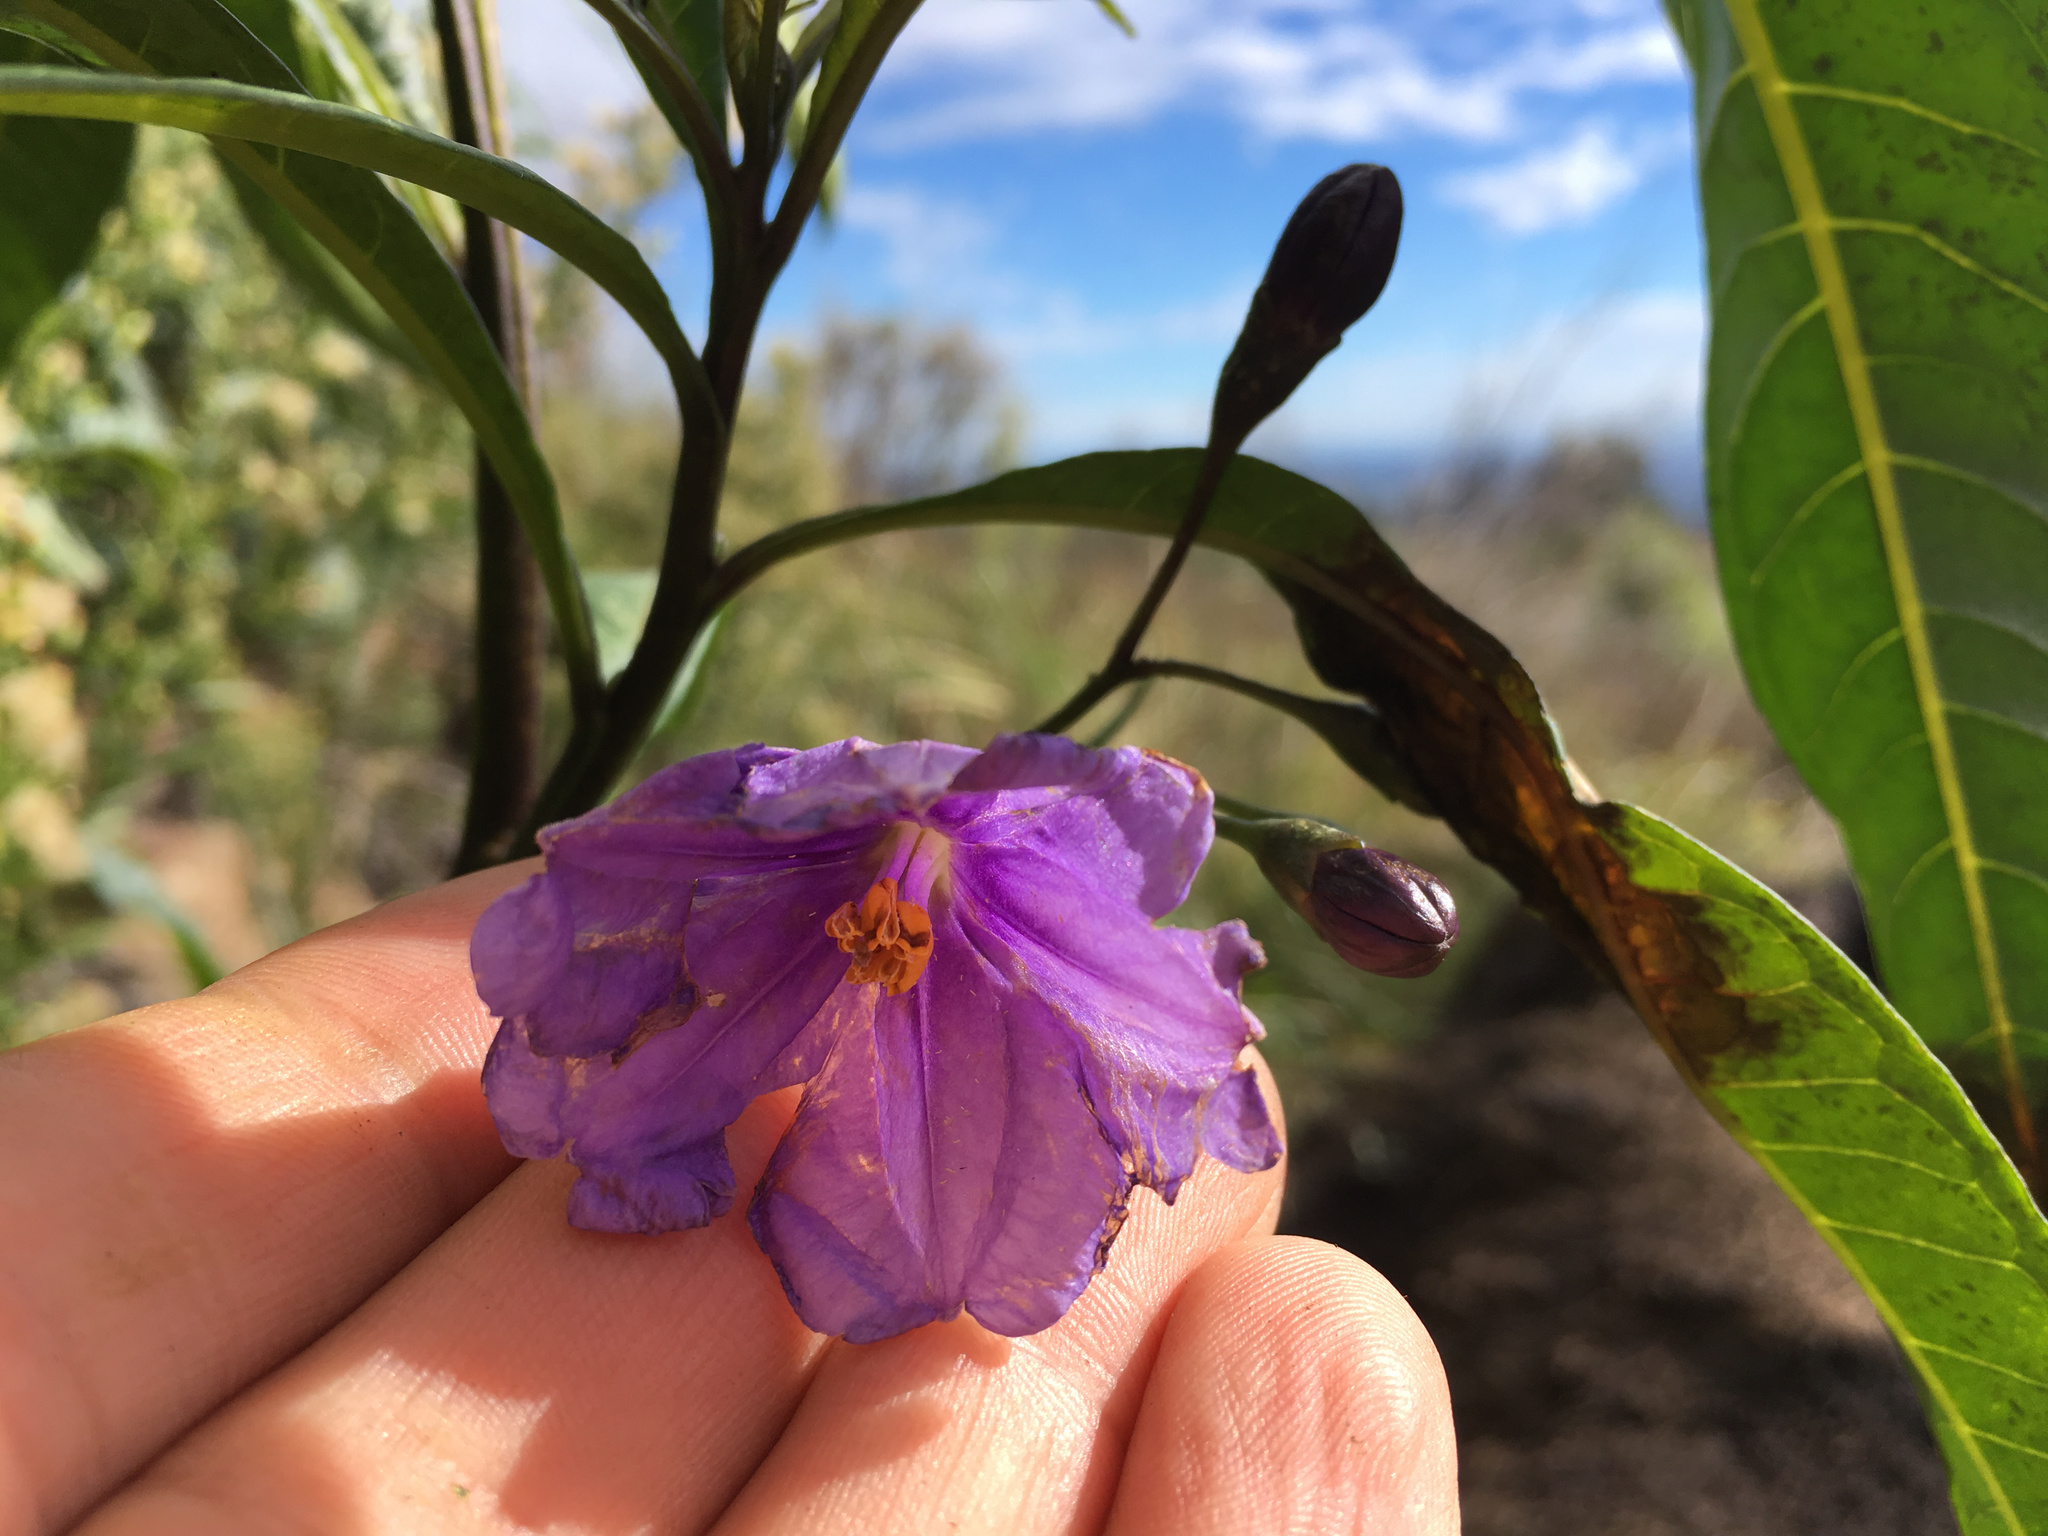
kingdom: Plantae
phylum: Tracheophyta
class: Magnoliopsida
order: Solanales
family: Solanaceae
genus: Solanum
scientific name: Solanum laciniatum
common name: Kangaroo-apple
